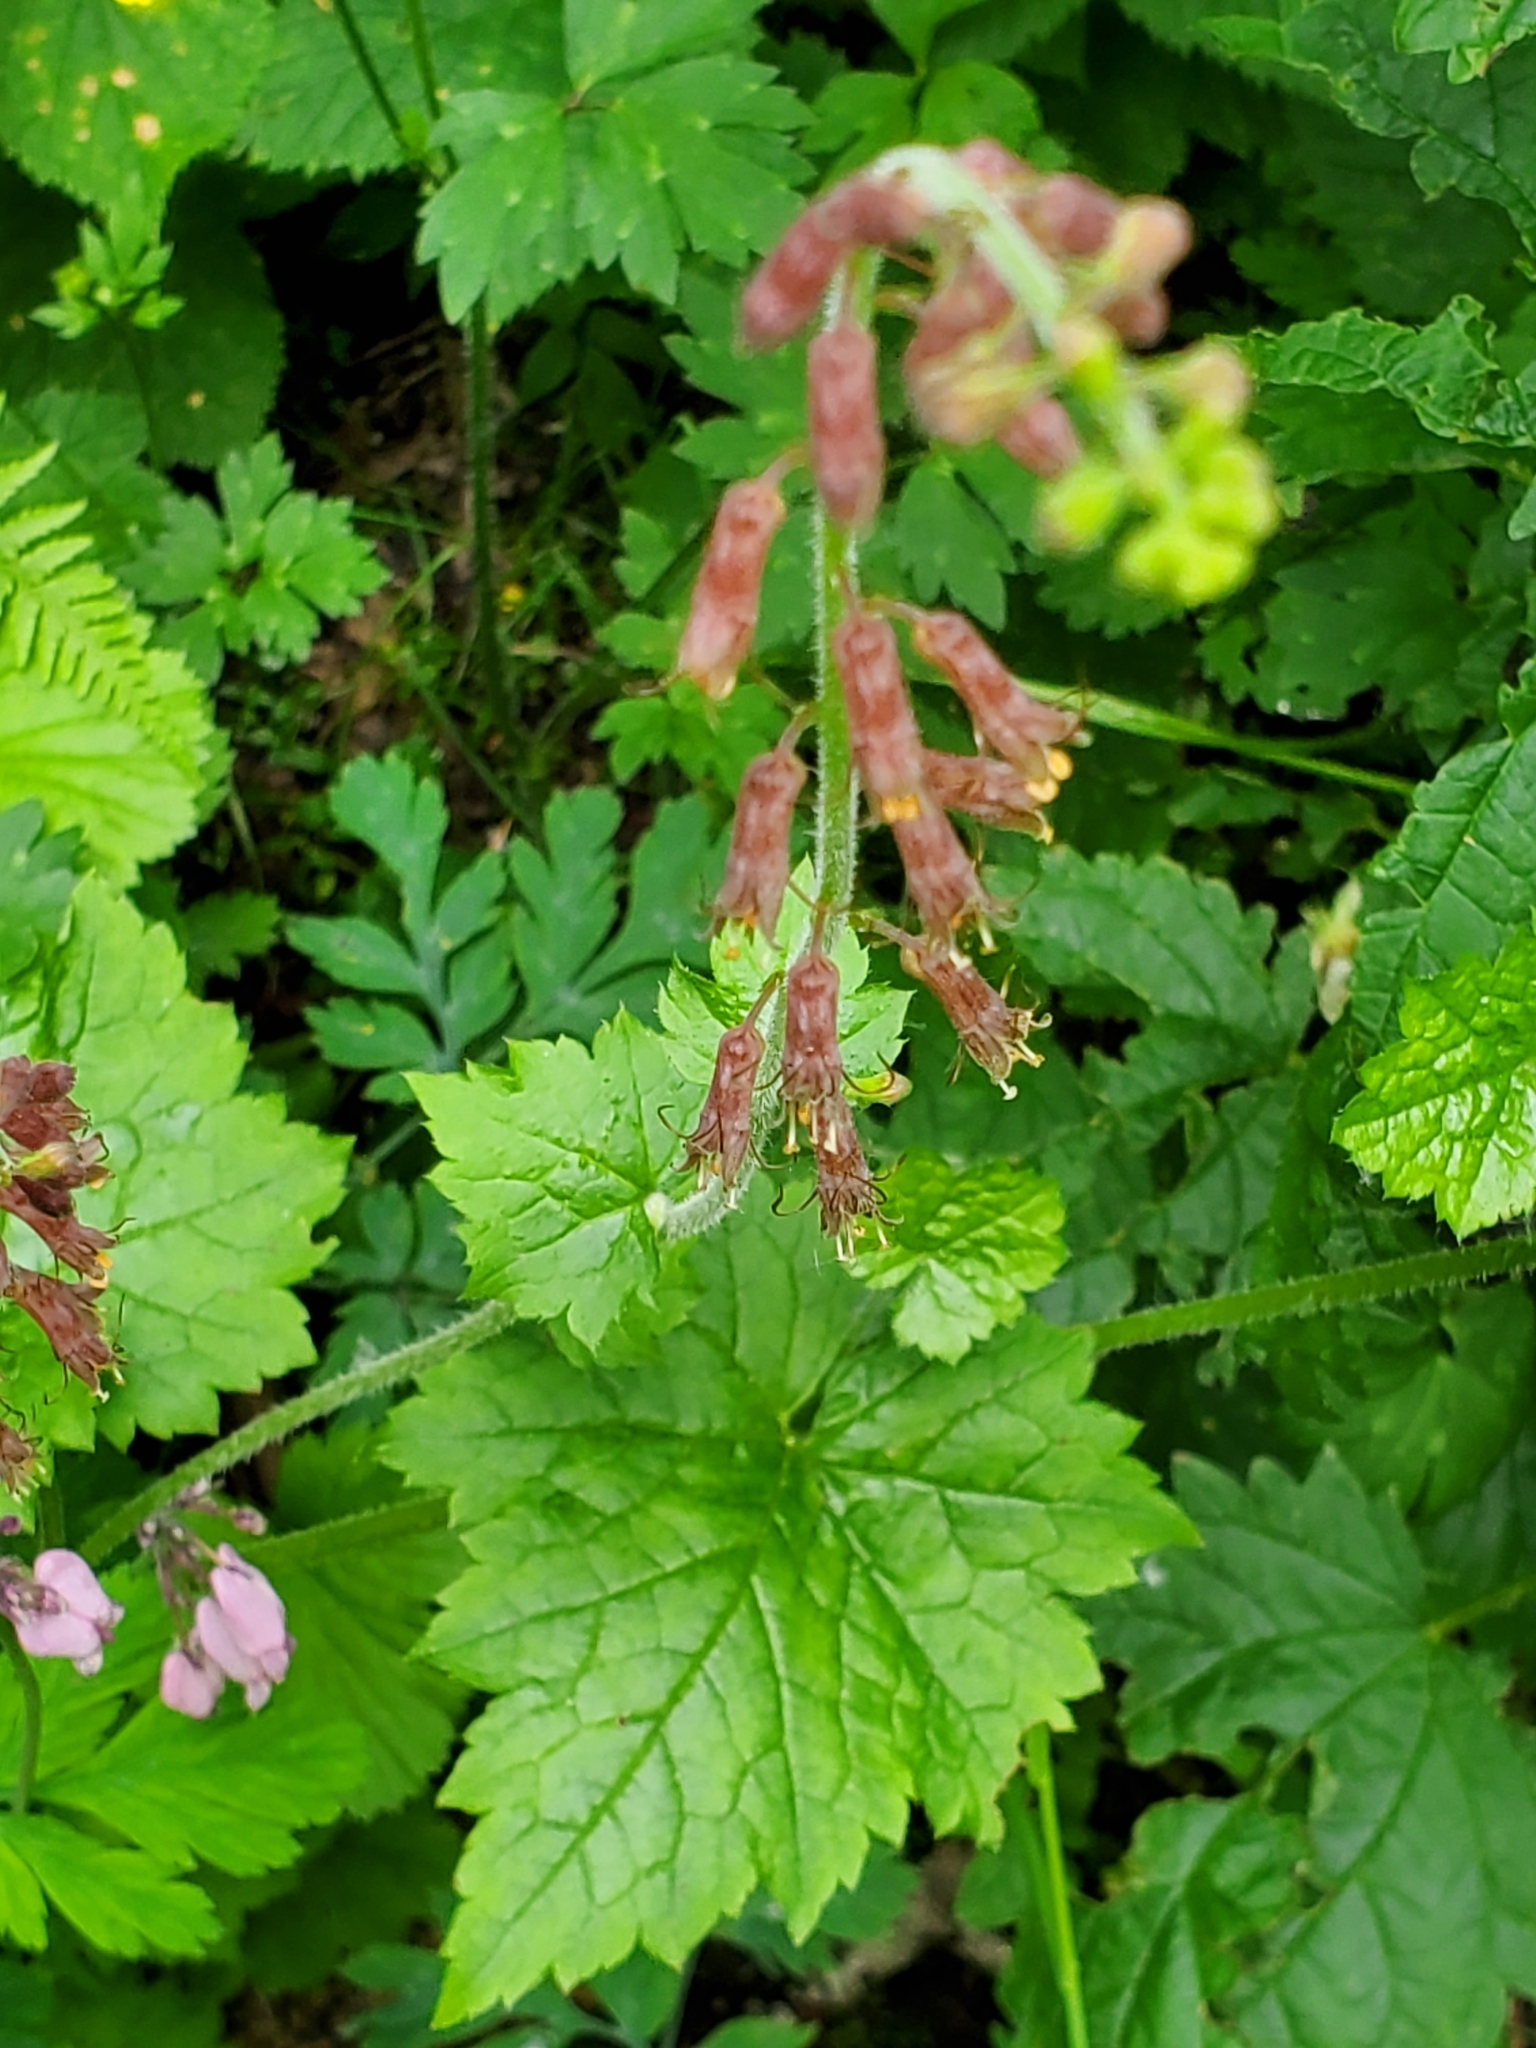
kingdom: Plantae
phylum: Tracheophyta
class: Magnoliopsida
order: Saxifragales
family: Saxifragaceae
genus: Tolmiea
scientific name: Tolmiea menziesii
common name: Pick-a-back-plant
